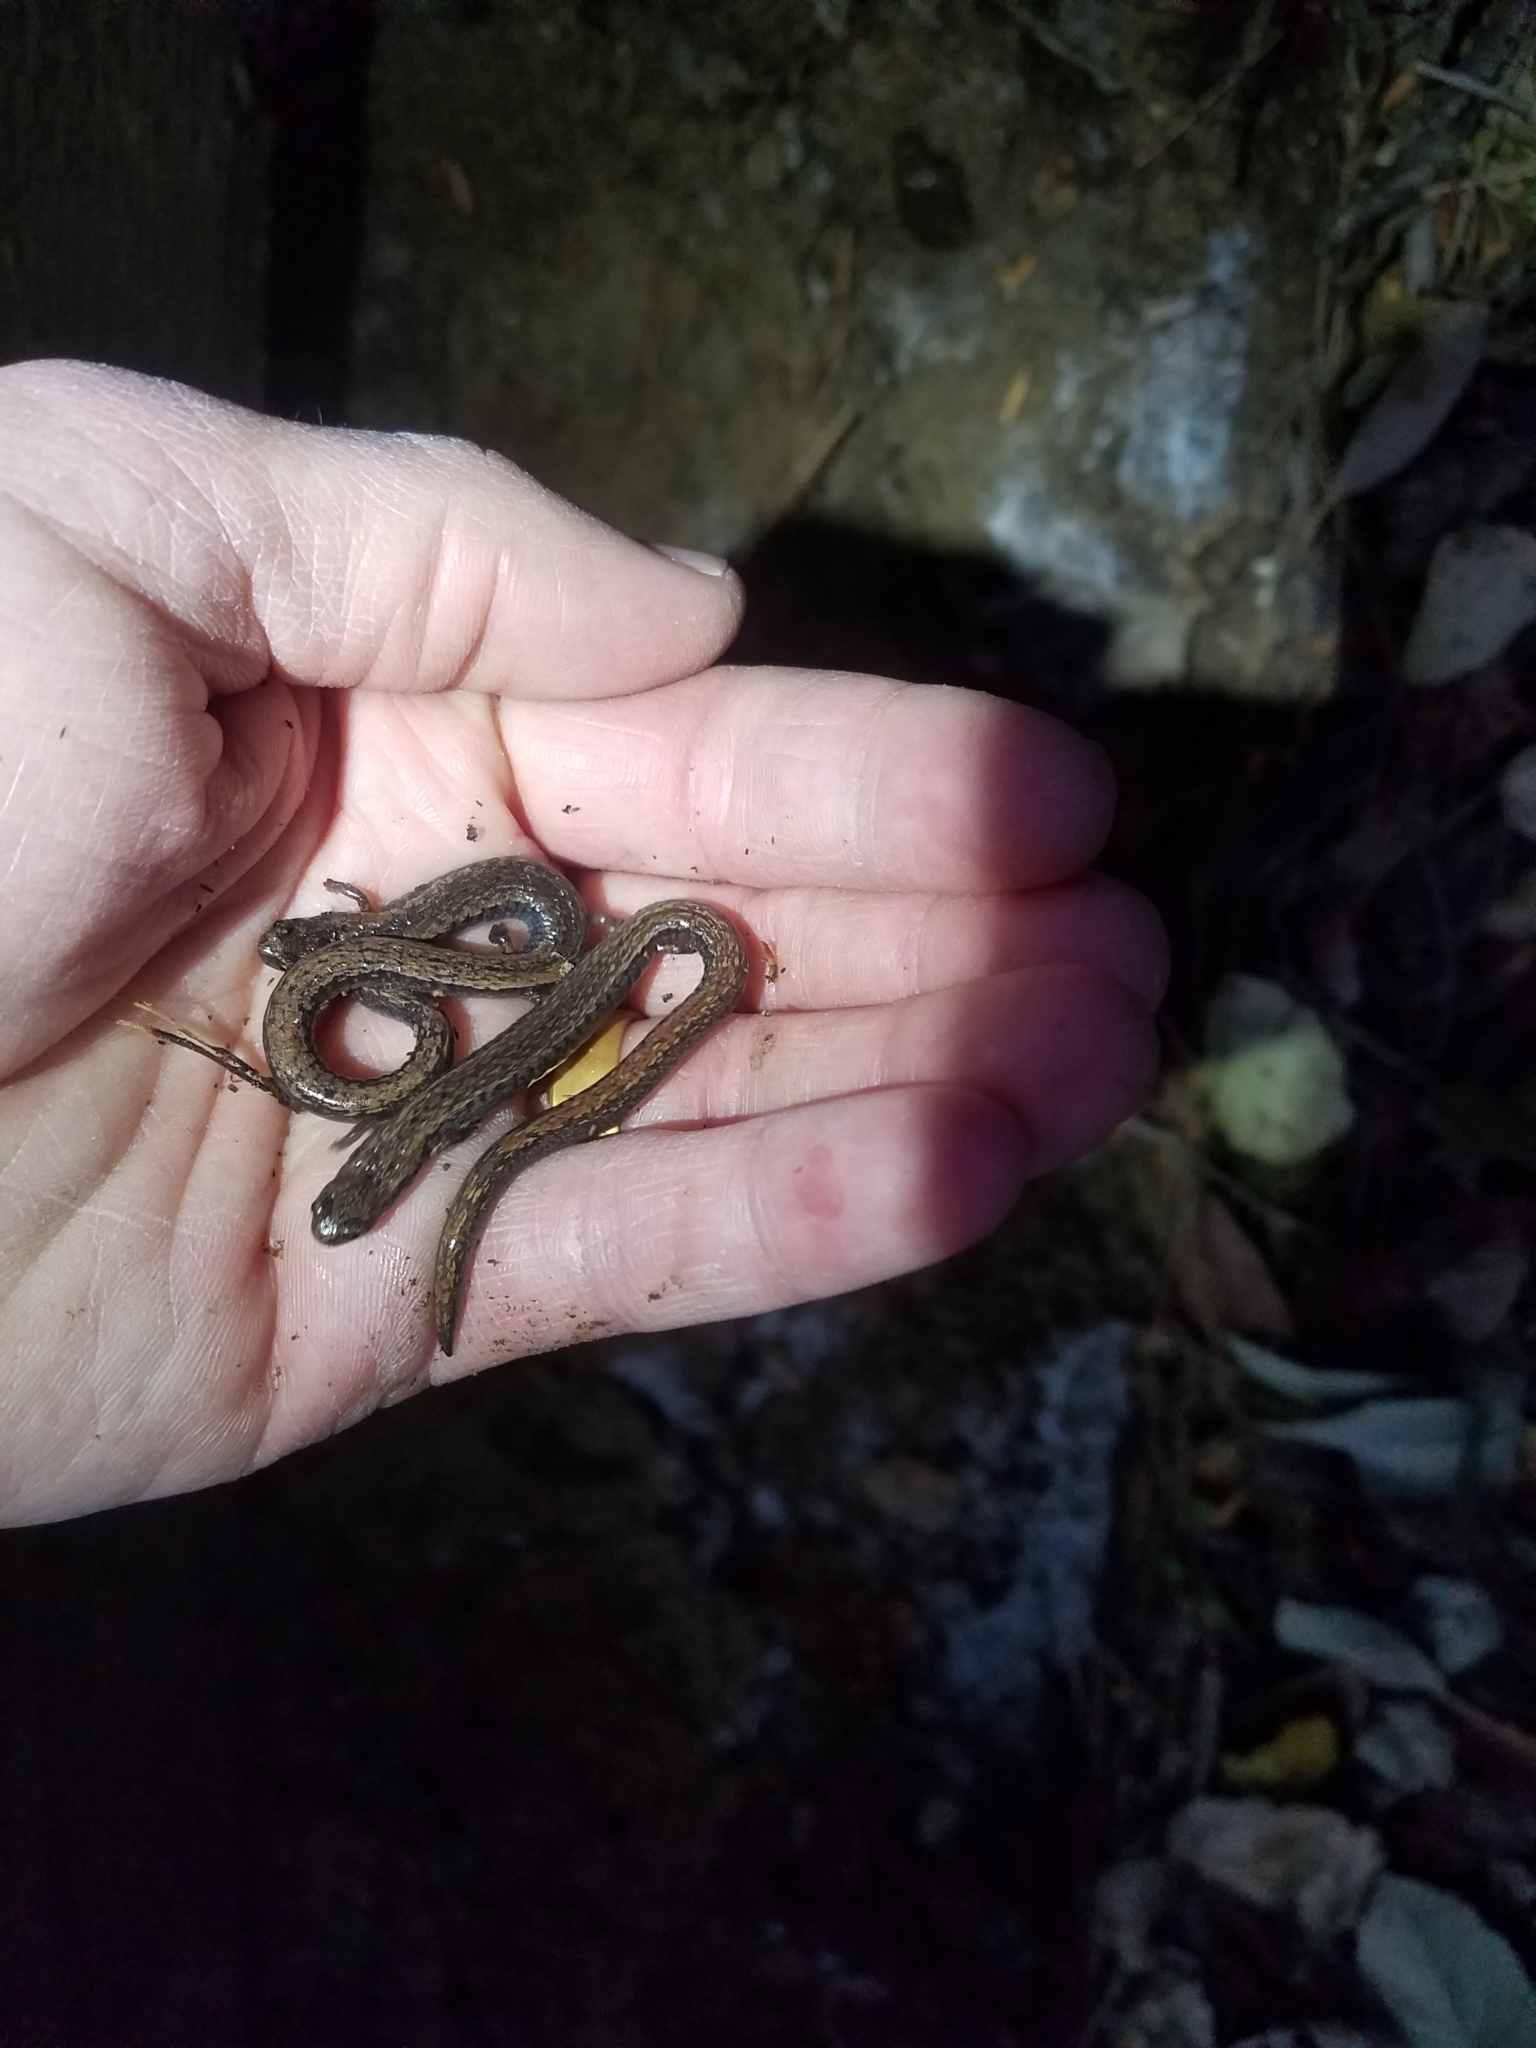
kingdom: Animalia
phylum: Chordata
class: Amphibia
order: Caudata
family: Plethodontidae
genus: Batrachoseps
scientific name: Batrachoseps attenuatus
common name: California slender salamander
